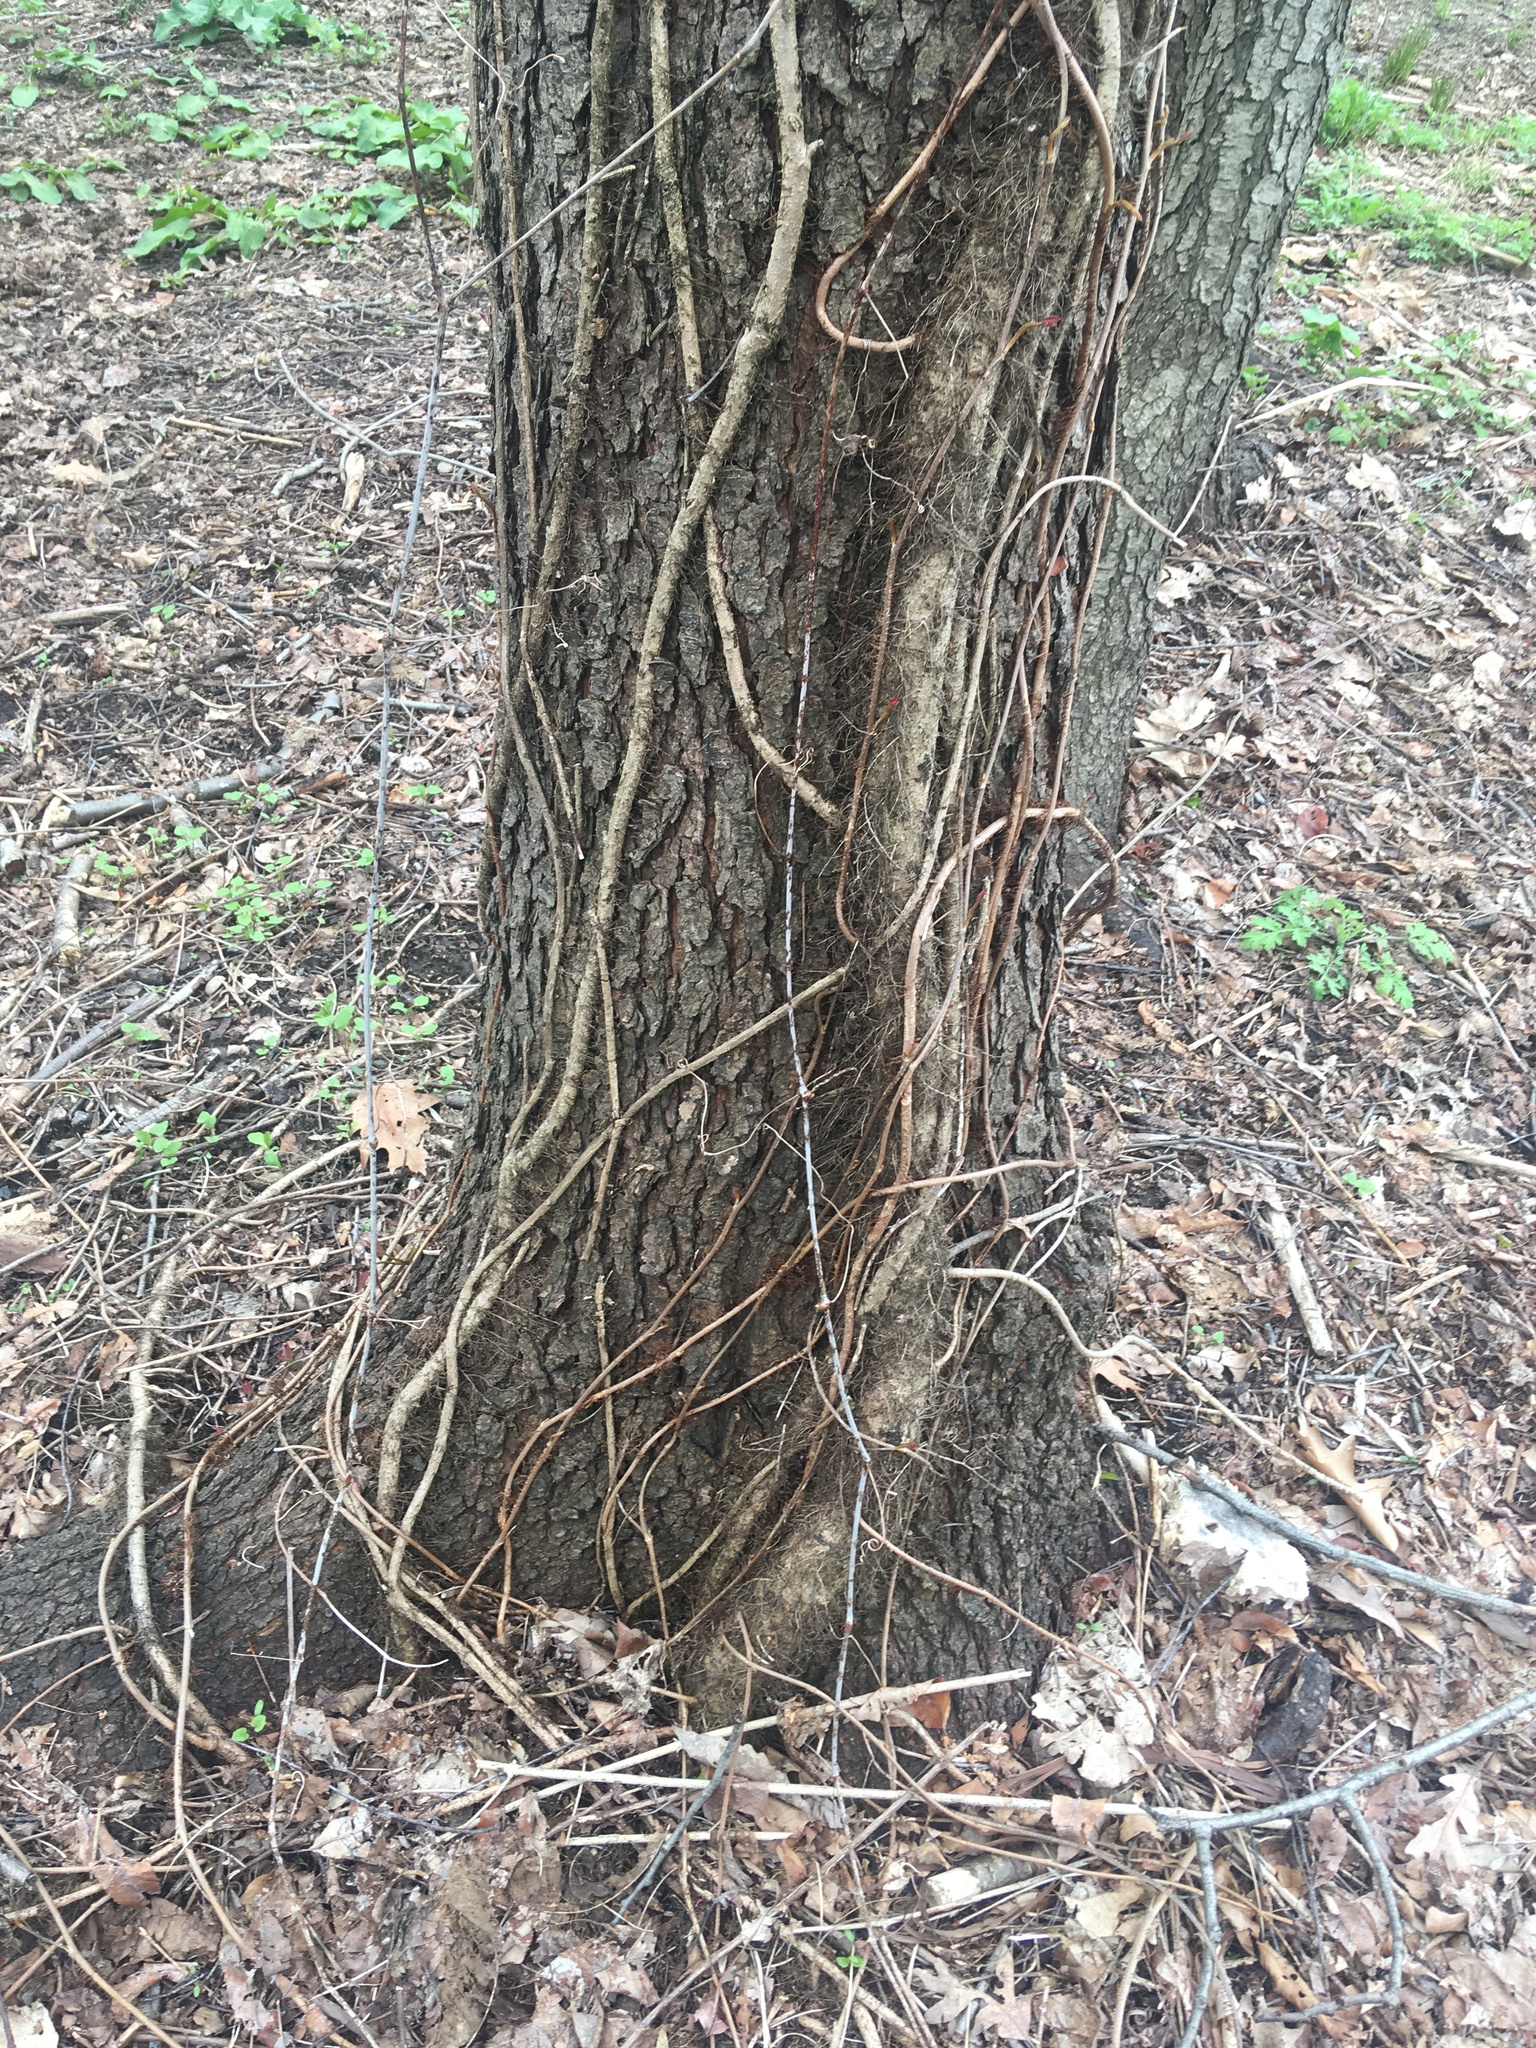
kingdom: Plantae
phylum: Tracheophyta
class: Magnoliopsida
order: Rosales
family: Rosaceae
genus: Prunus
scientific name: Prunus serotina
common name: Black cherry
